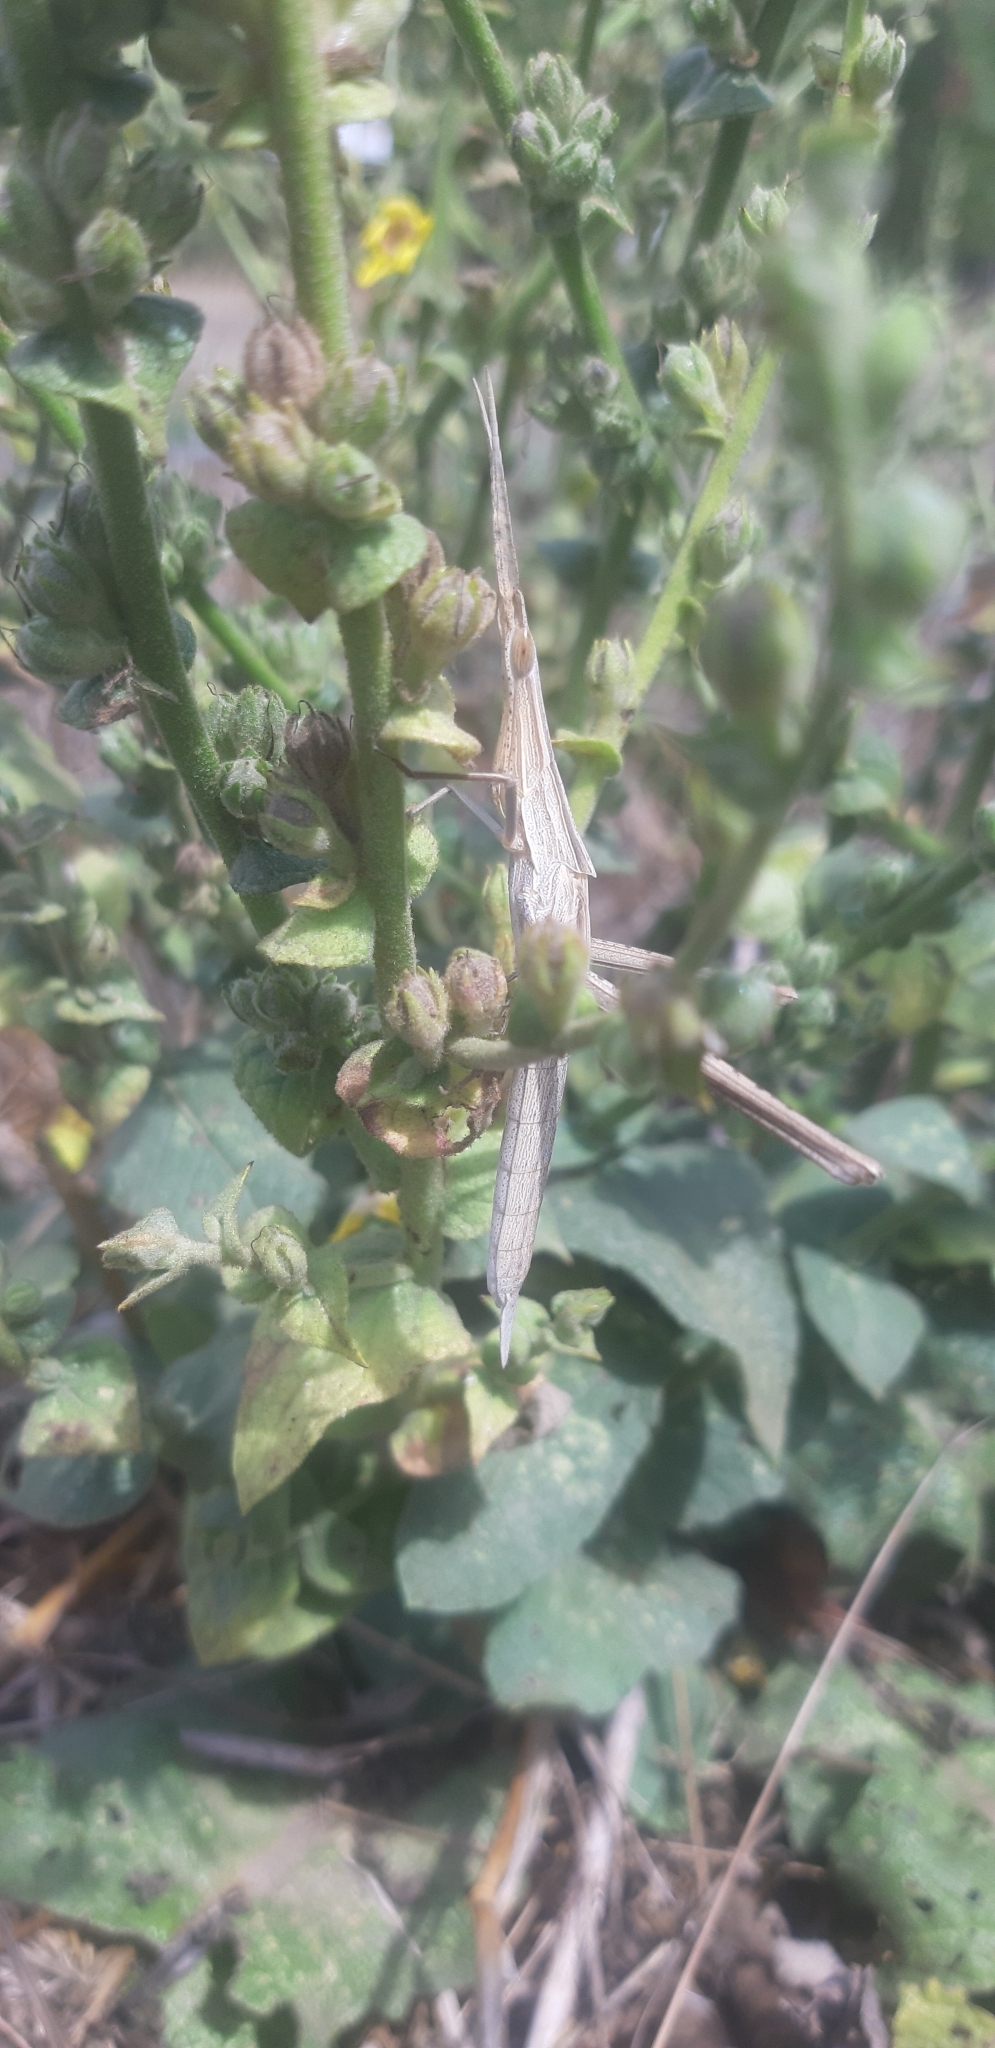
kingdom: Animalia
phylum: Arthropoda
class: Insecta
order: Orthoptera
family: Acrididae
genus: Acrida
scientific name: Acrida ungarica
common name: Common cone-headed grasshopper
